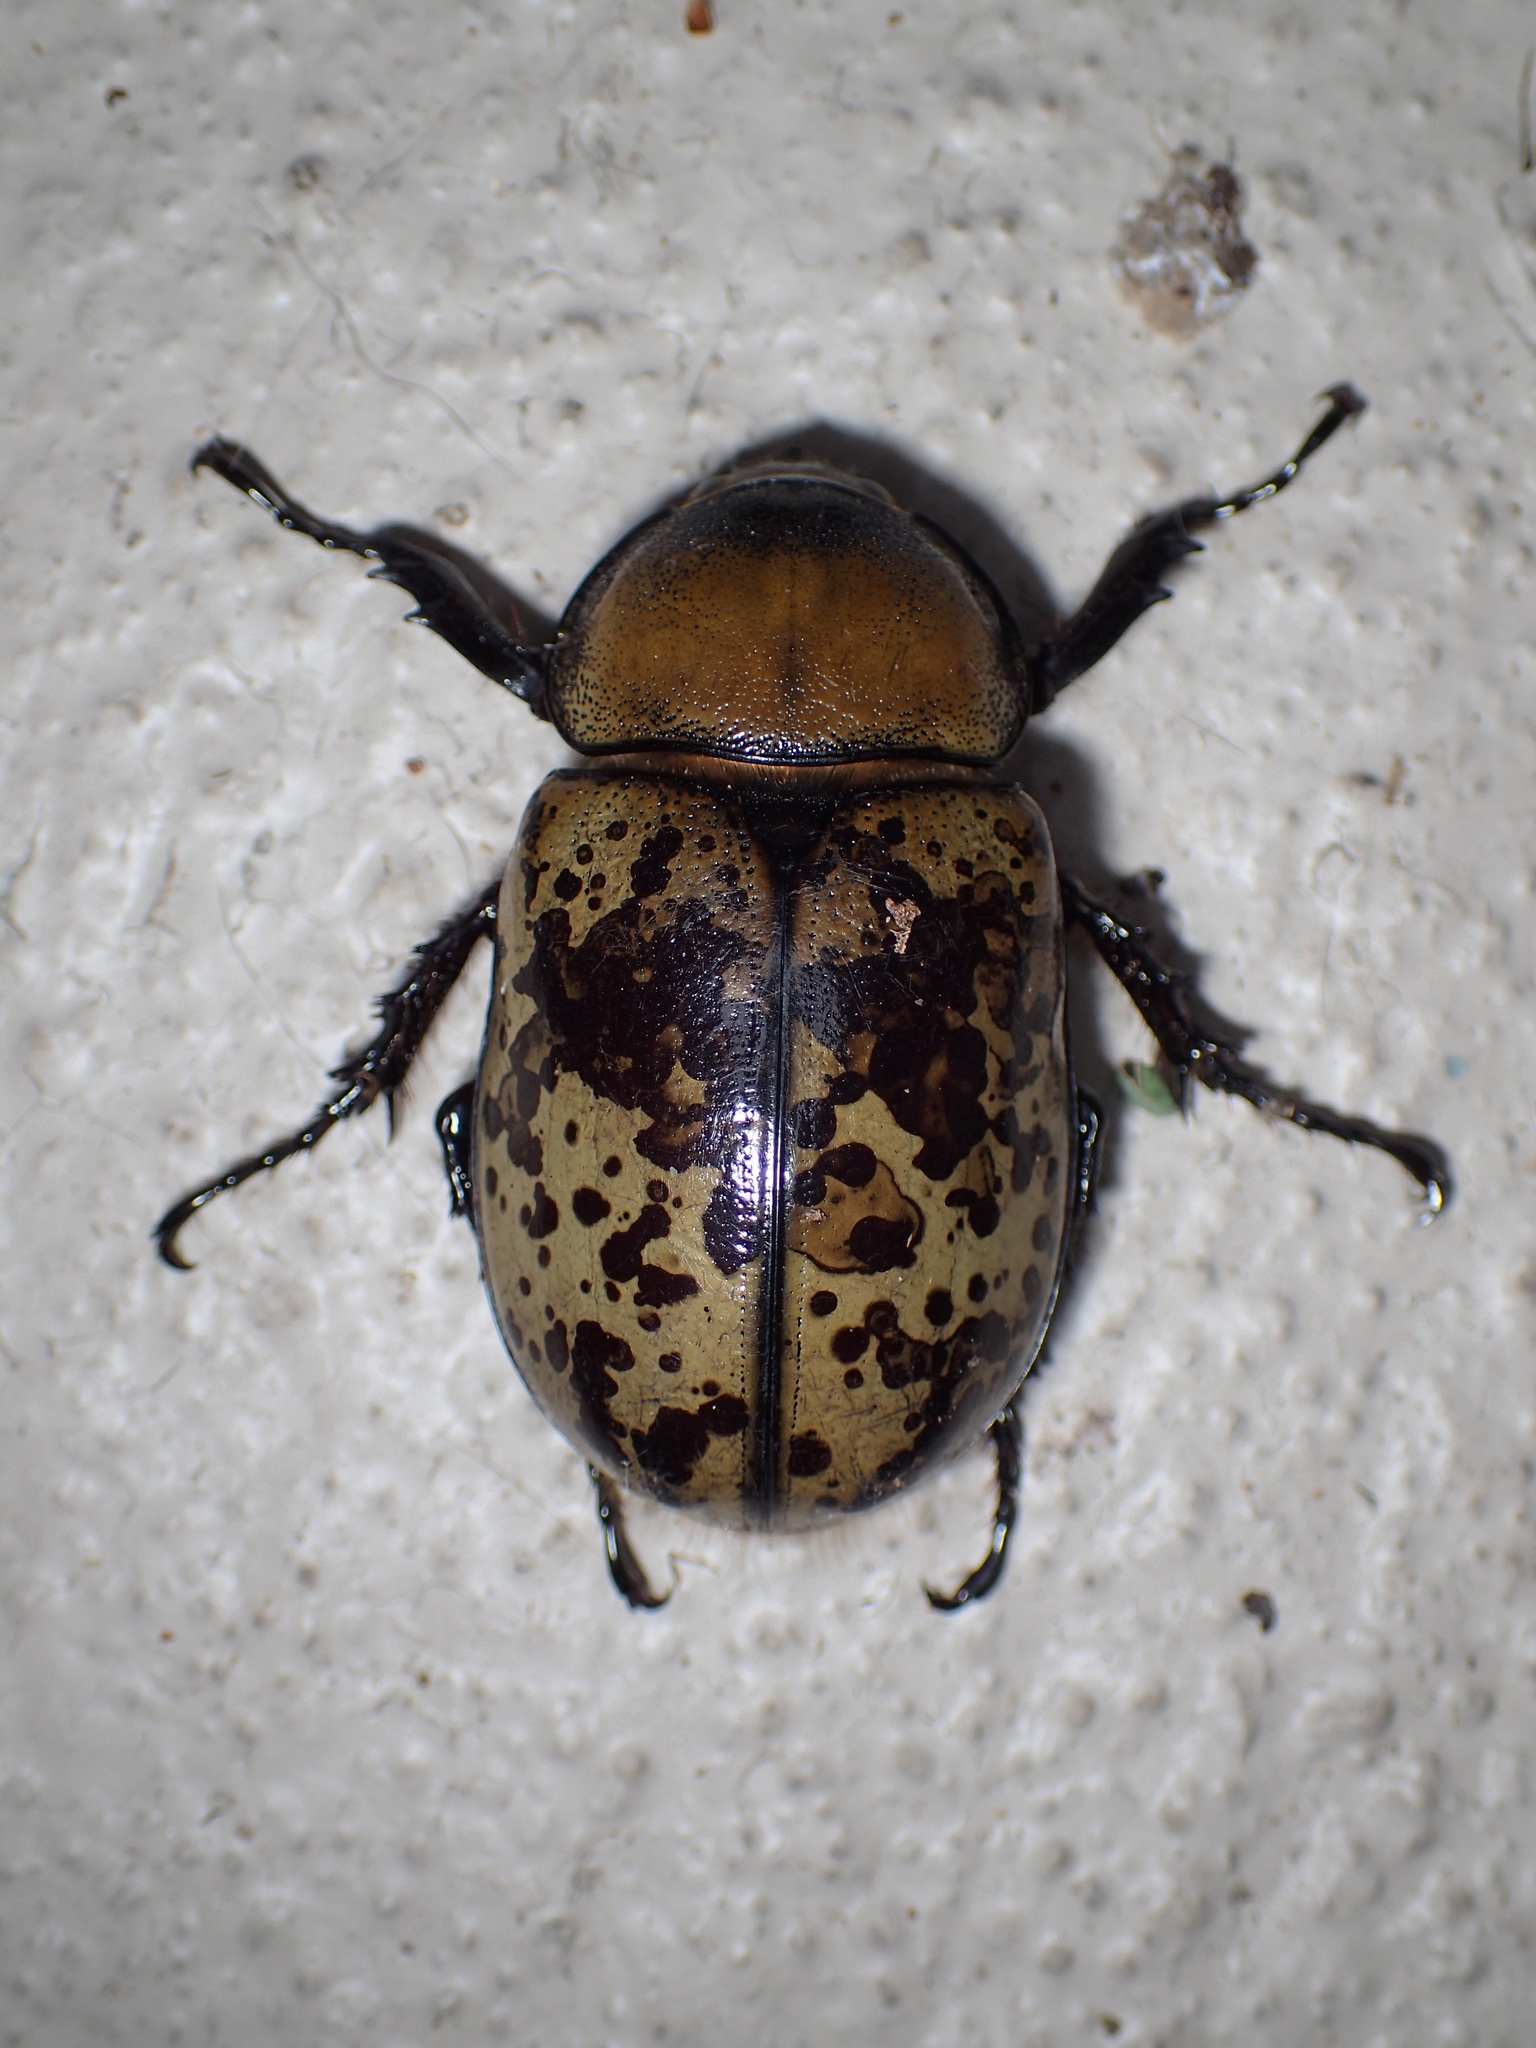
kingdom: Animalia
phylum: Arthropoda
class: Insecta
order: Coleoptera
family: Scarabaeidae
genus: Dynastes
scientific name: Dynastes tityus
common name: Eastern hercules beetle
